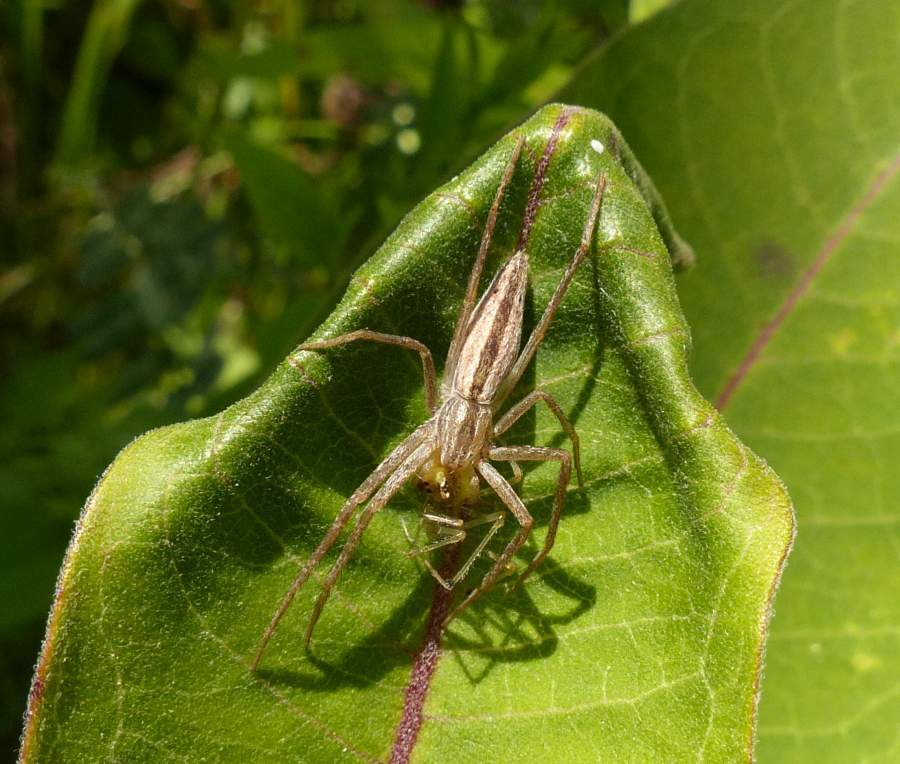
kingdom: Animalia
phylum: Arthropoda
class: Arachnida
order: Araneae
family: Philodromidae
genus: Tibellus
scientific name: Tibellus oblongus
